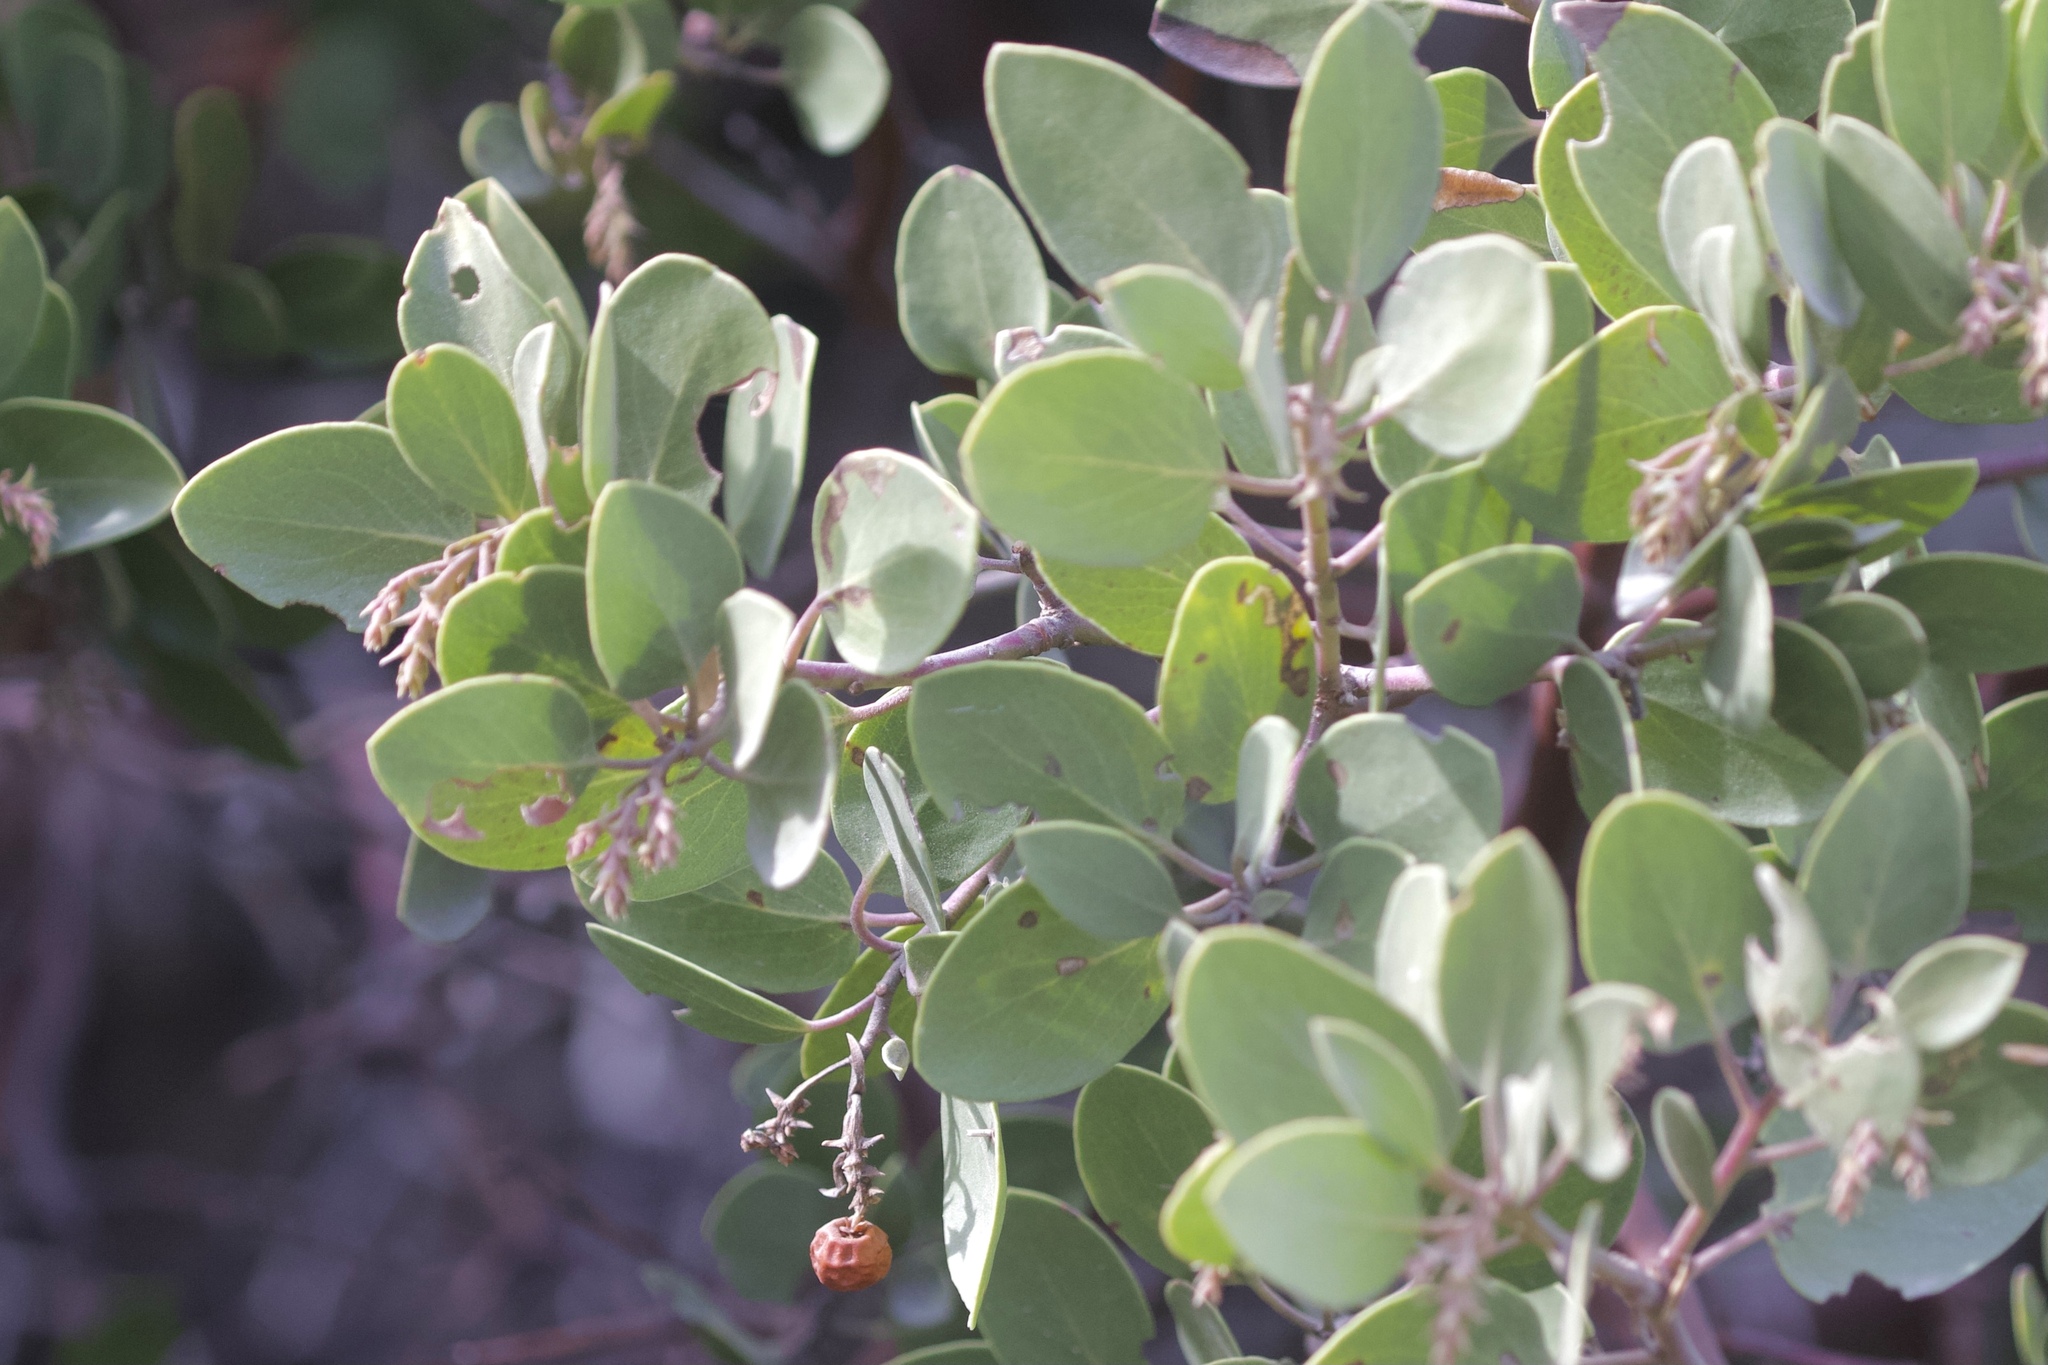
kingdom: Plantae
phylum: Tracheophyta
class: Magnoliopsida
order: Ericales
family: Ericaceae
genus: Arctostaphylos
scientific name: Arctostaphylos glauca
